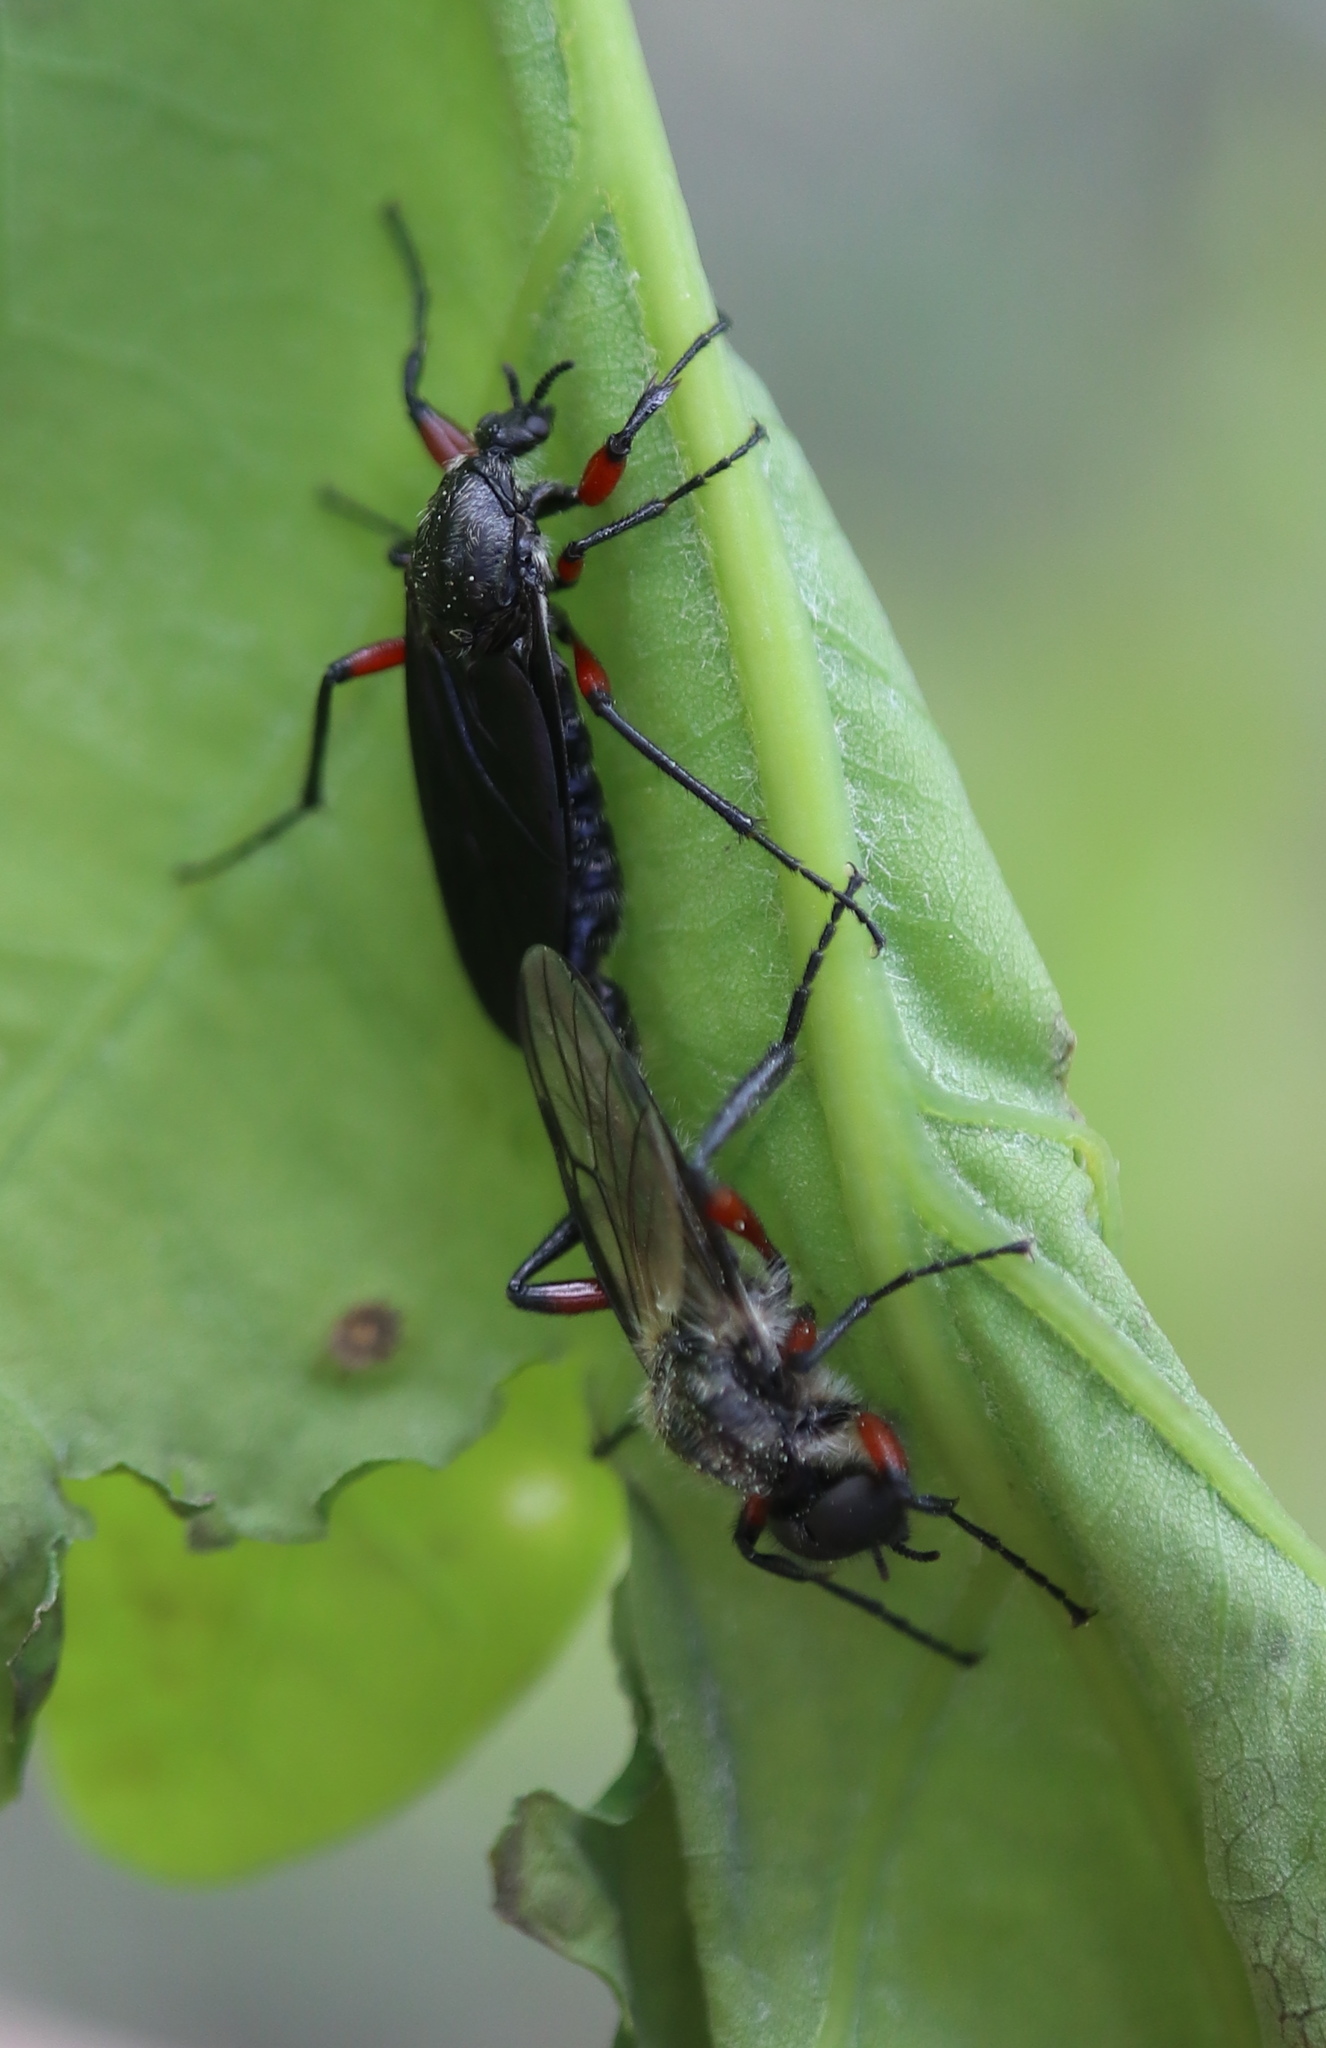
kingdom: Animalia
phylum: Arthropoda
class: Insecta
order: Diptera
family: Bibionidae
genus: Bibio
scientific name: Bibio femoratus
